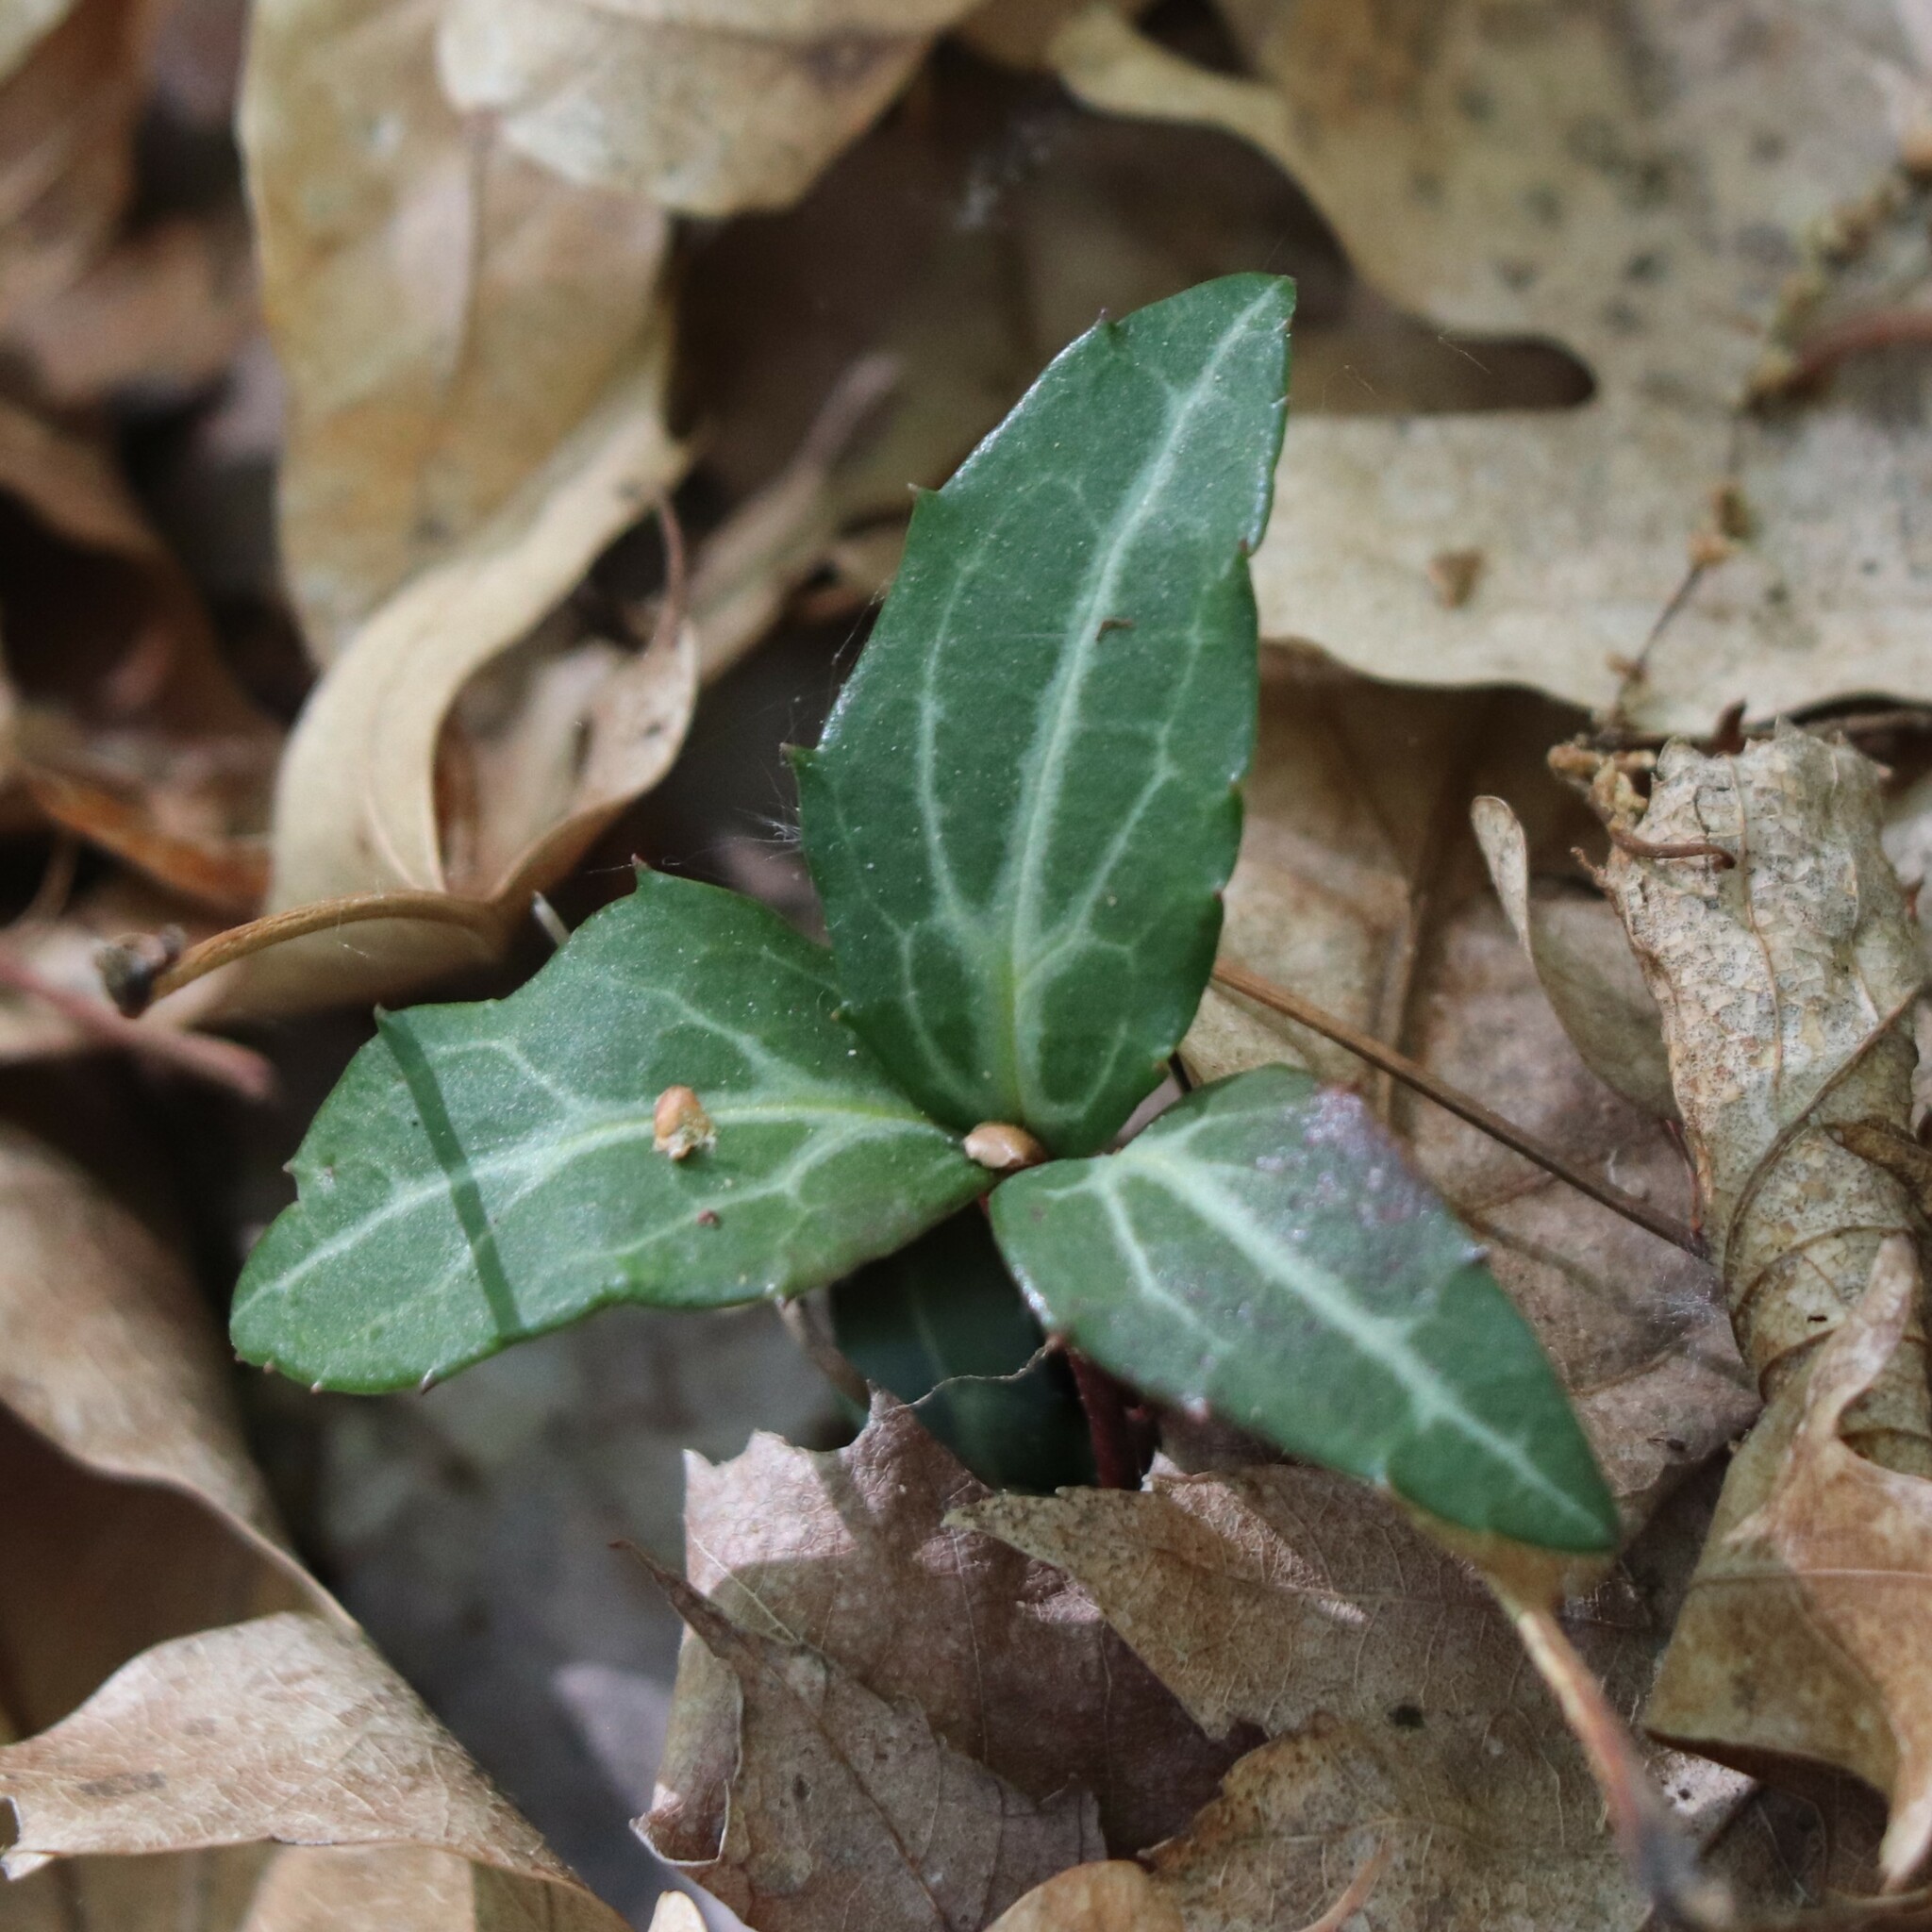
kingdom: Plantae
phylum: Tracheophyta
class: Magnoliopsida
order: Ericales
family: Ericaceae
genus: Chimaphila
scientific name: Chimaphila maculata
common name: Spotted pipsissewa
